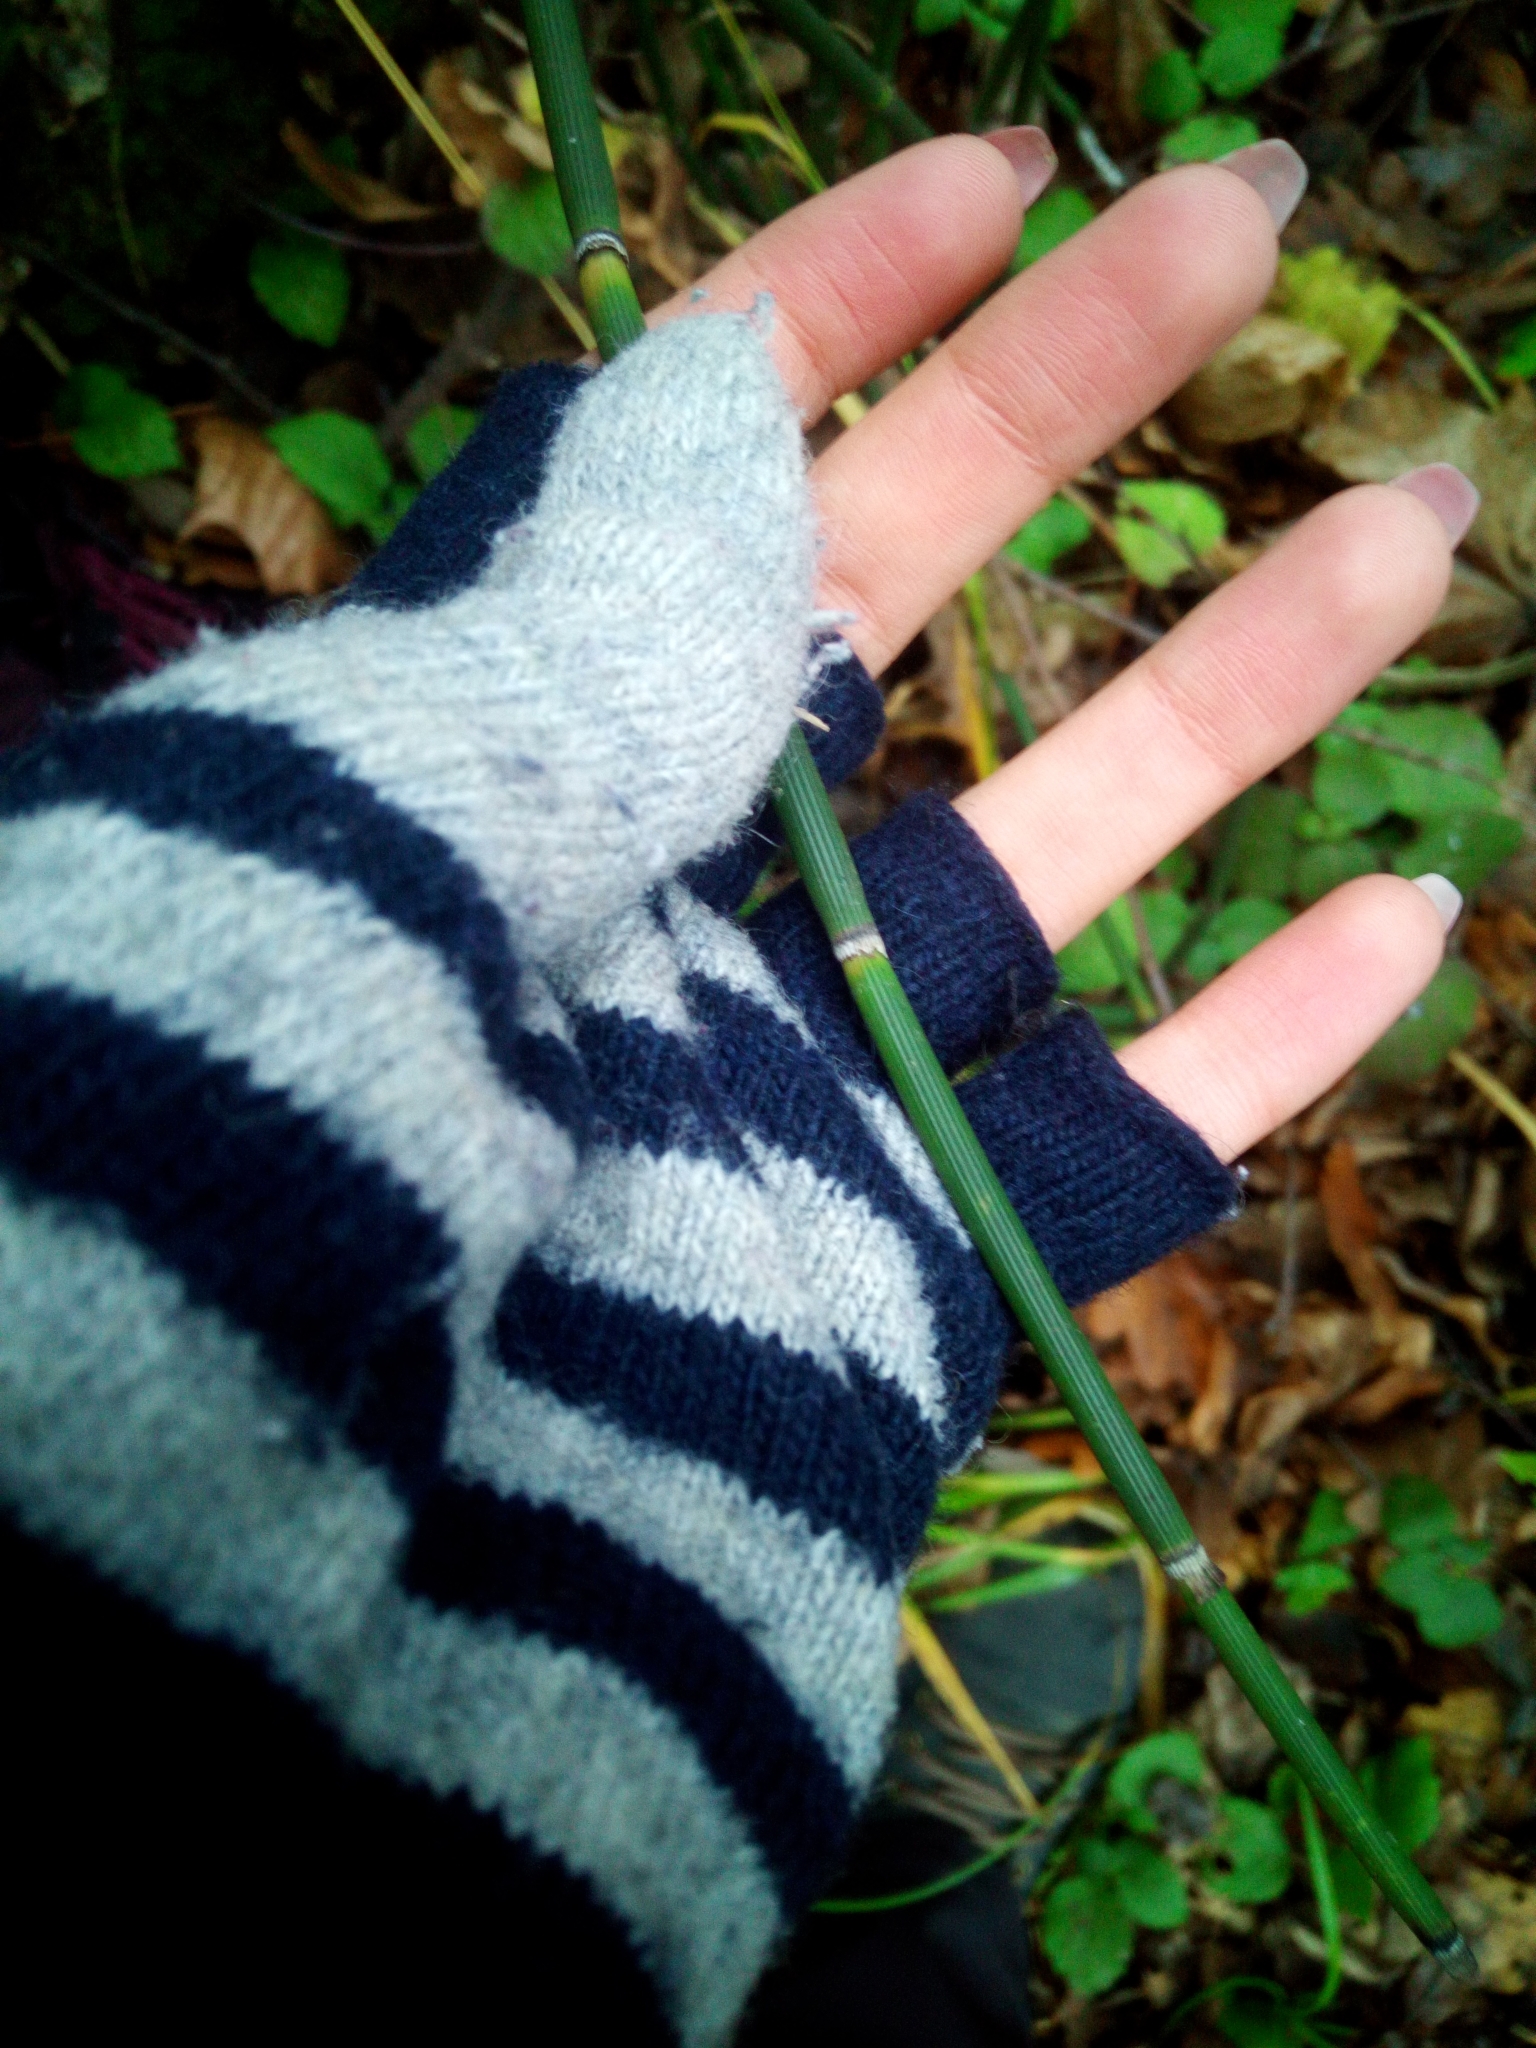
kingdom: Plantae
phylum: Tracheophyta
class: Polypodiopsida
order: Equisetales
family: Equisetaceae
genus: Equisetum
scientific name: Equisetum hyemale
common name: Rough horsetail
